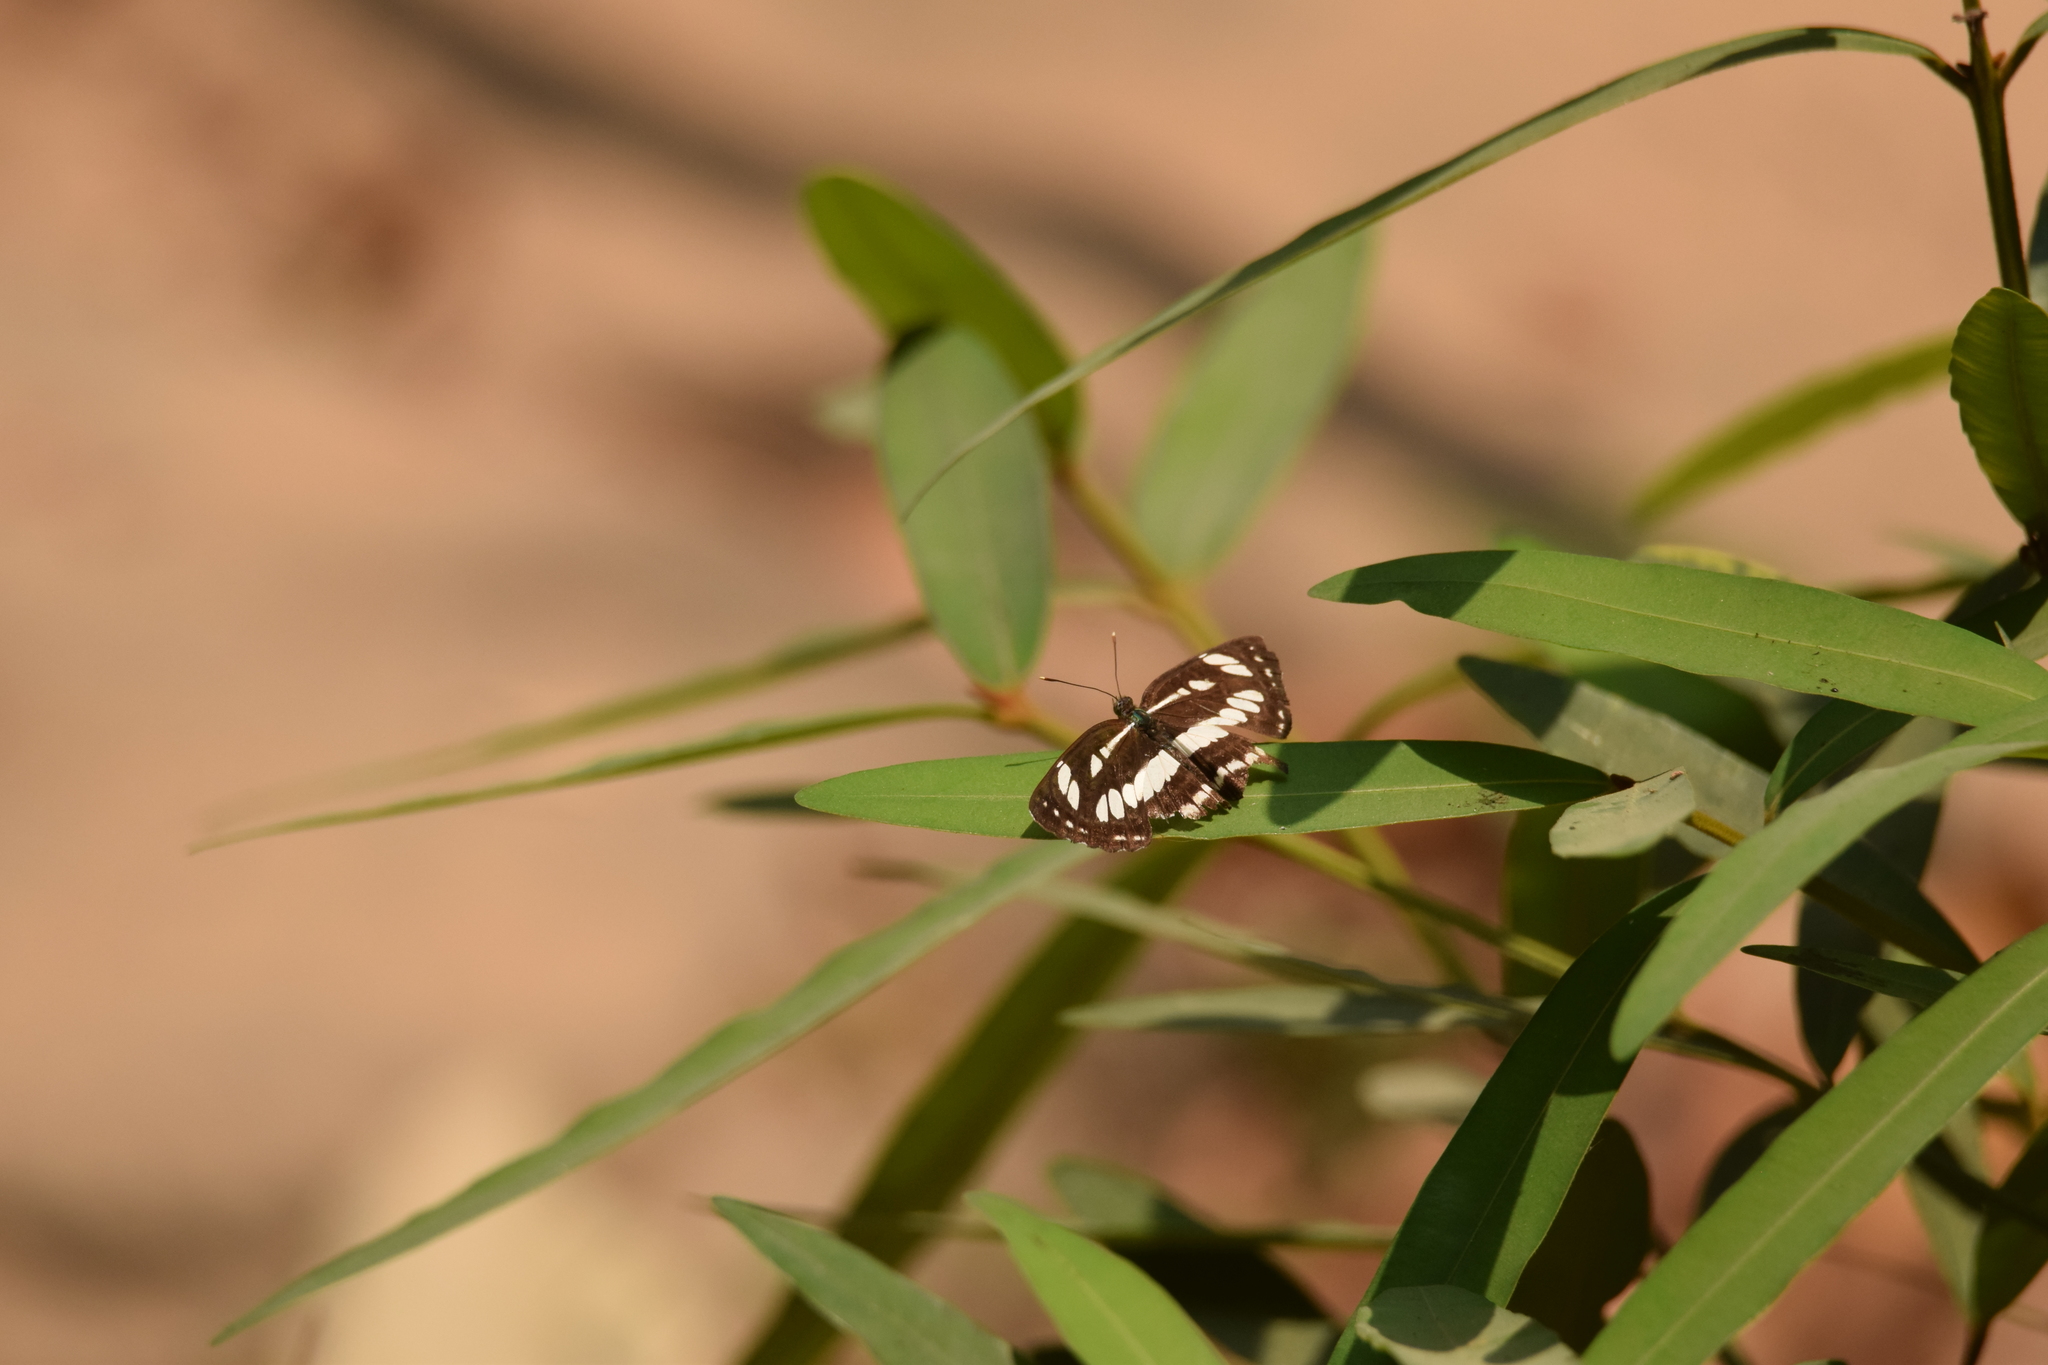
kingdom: Animalia
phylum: Arthropoda
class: Insecta
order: Lepidoptera
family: Nymphalidae
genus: Neptis
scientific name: Neptis hylas
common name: Common sailer
